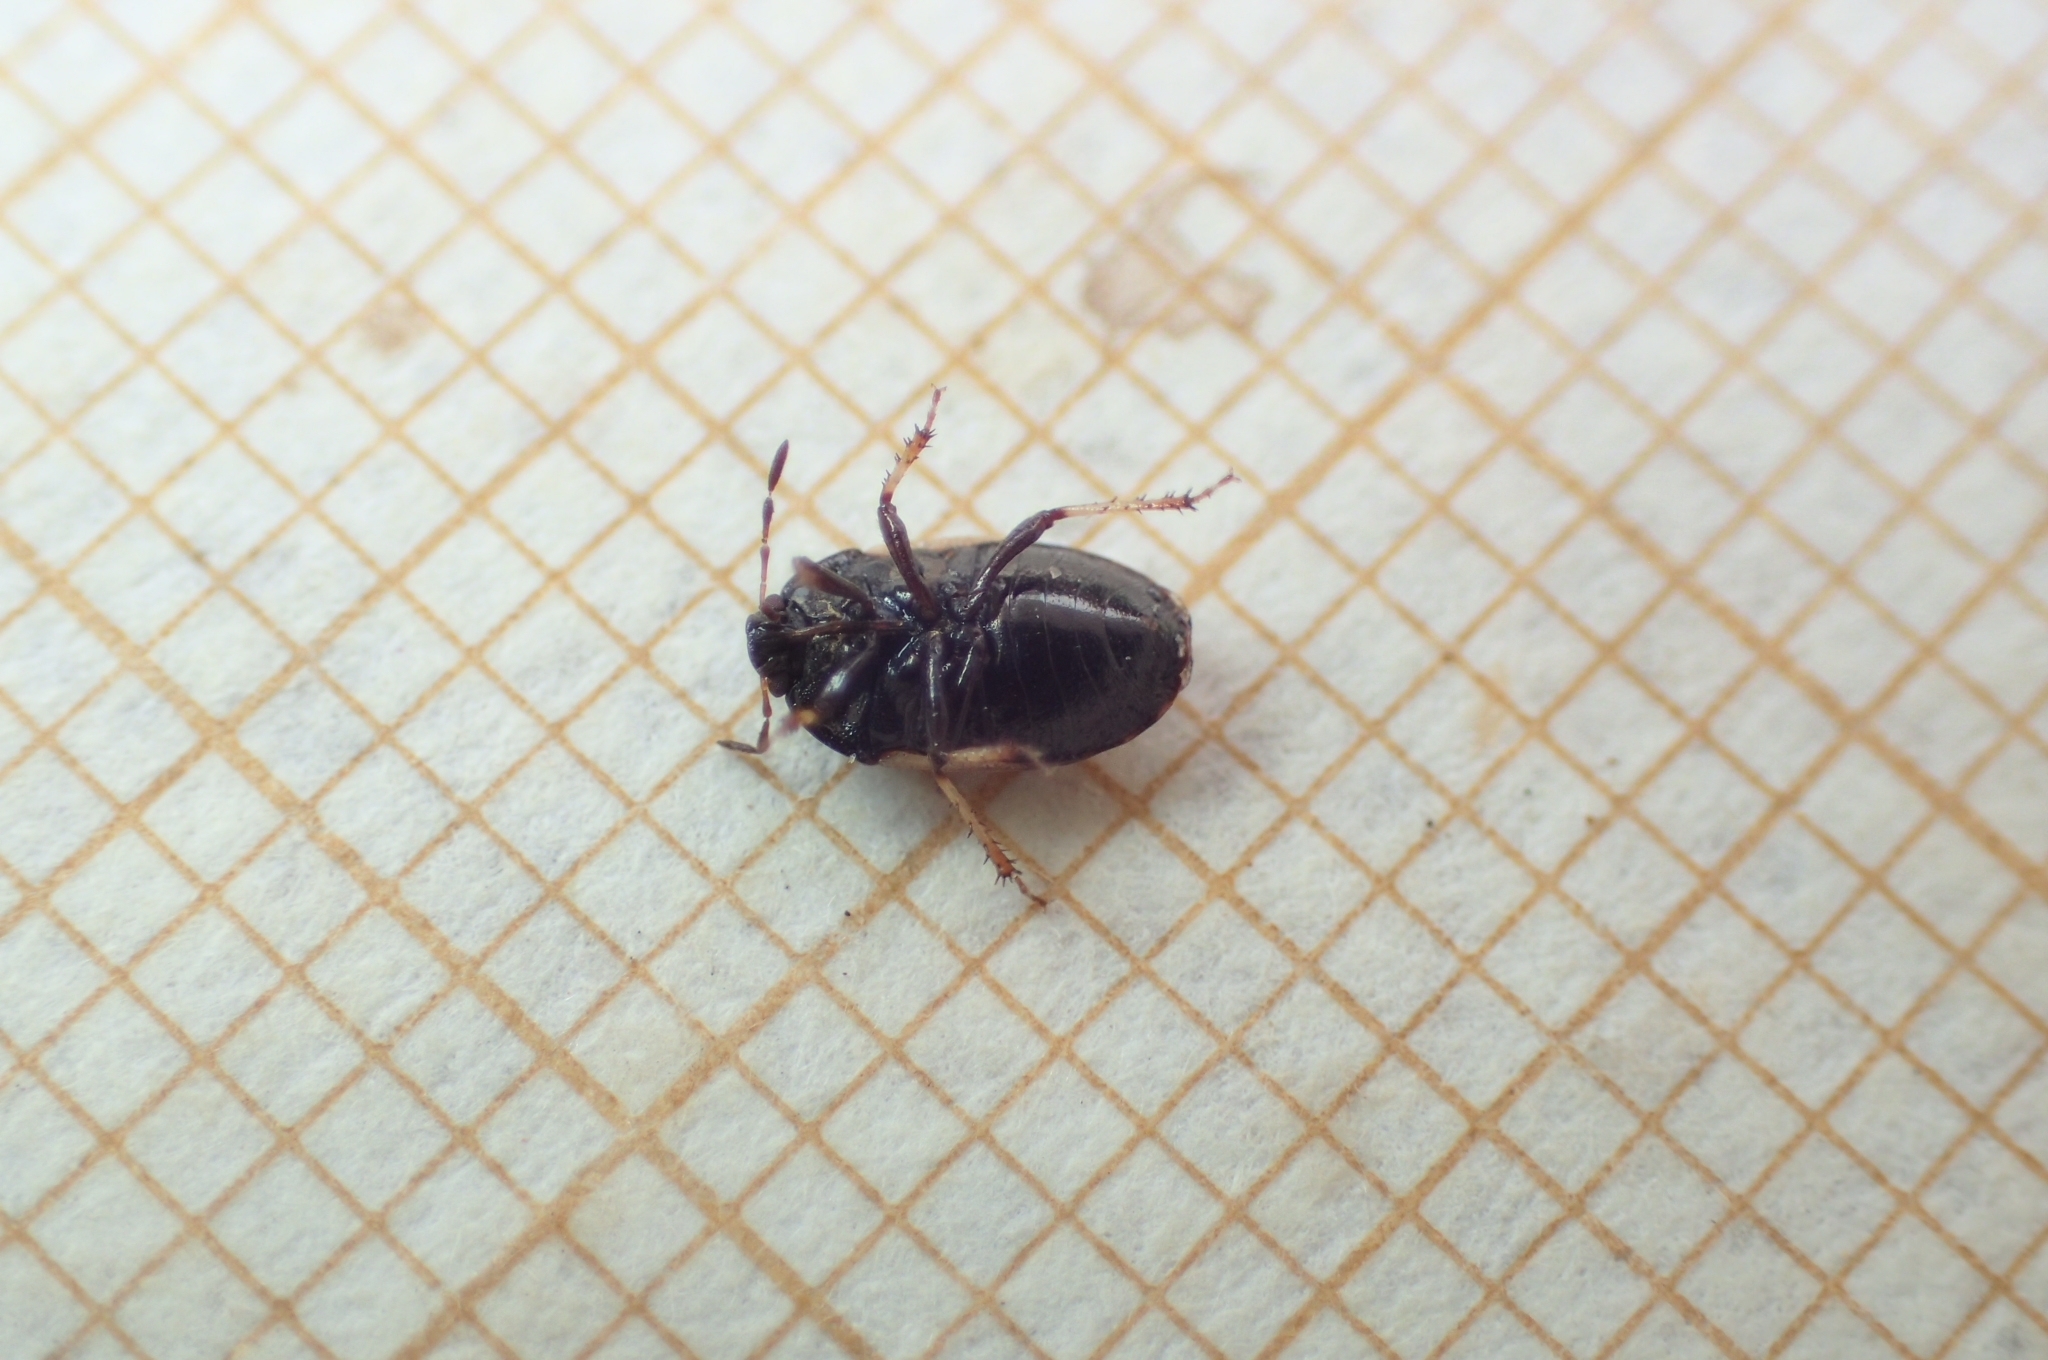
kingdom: Animalia
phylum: Arthropoda
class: Insecta
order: Hemiptera
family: Cydnidae
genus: Crocistethus
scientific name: Crocistethus waltlianus
